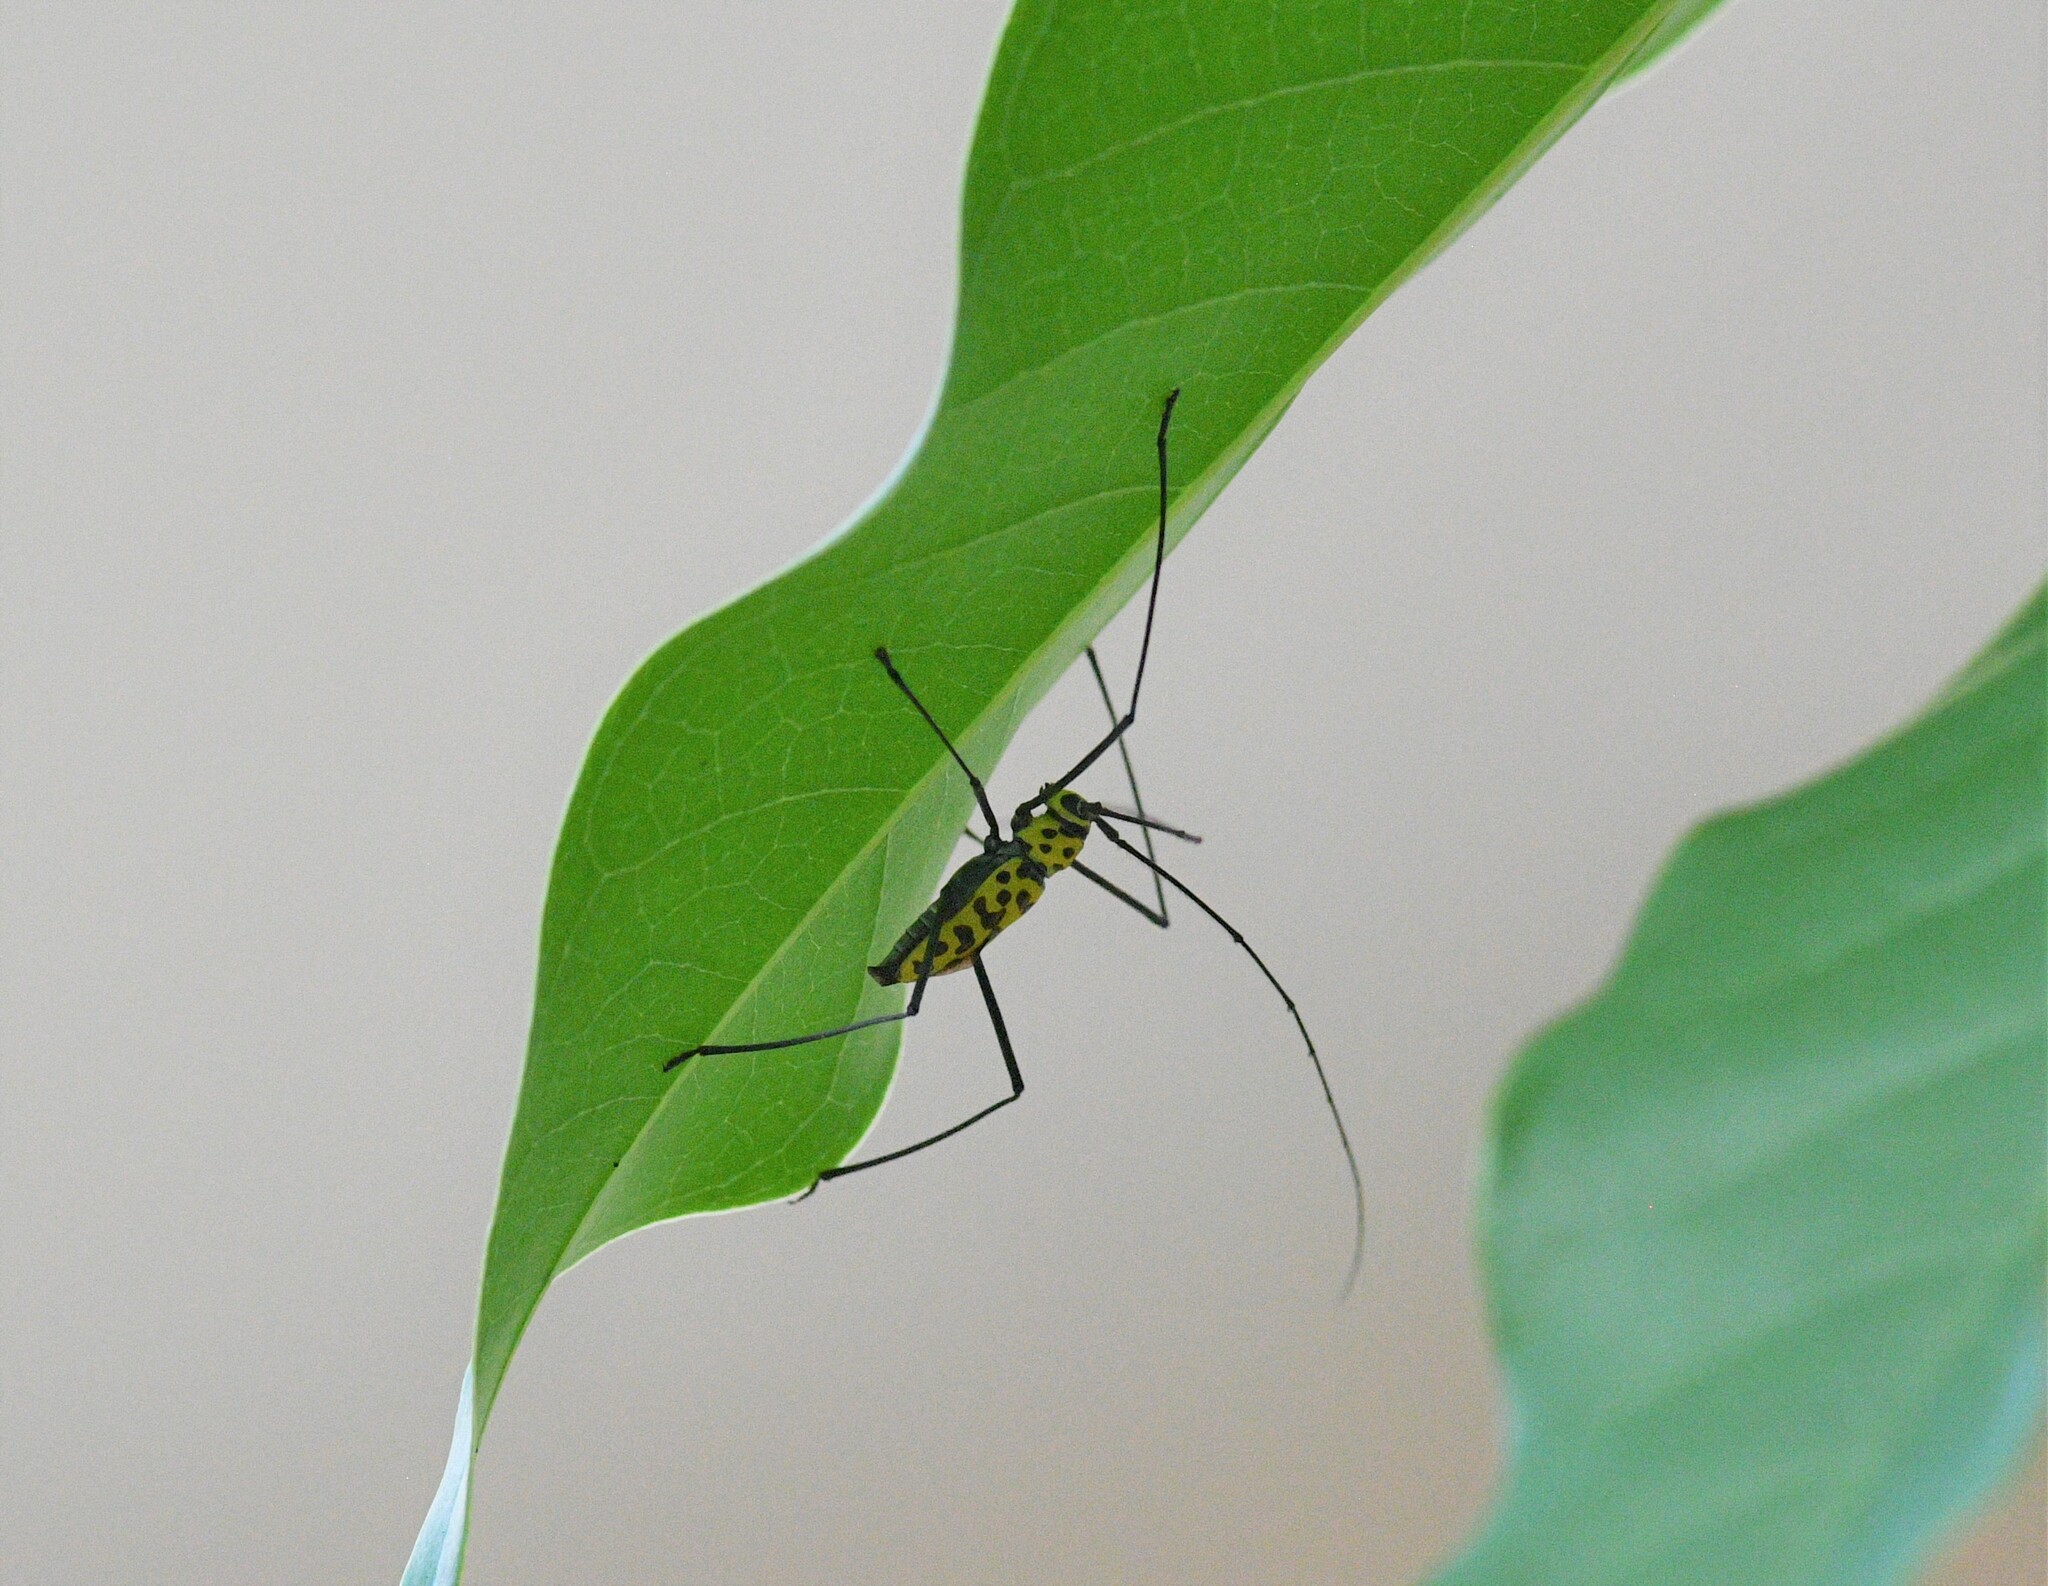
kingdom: Animalia
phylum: Arthropoda
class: Insecta
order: Coleoptera
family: Cerambycidae
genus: Gerania
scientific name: Gerania boscii
